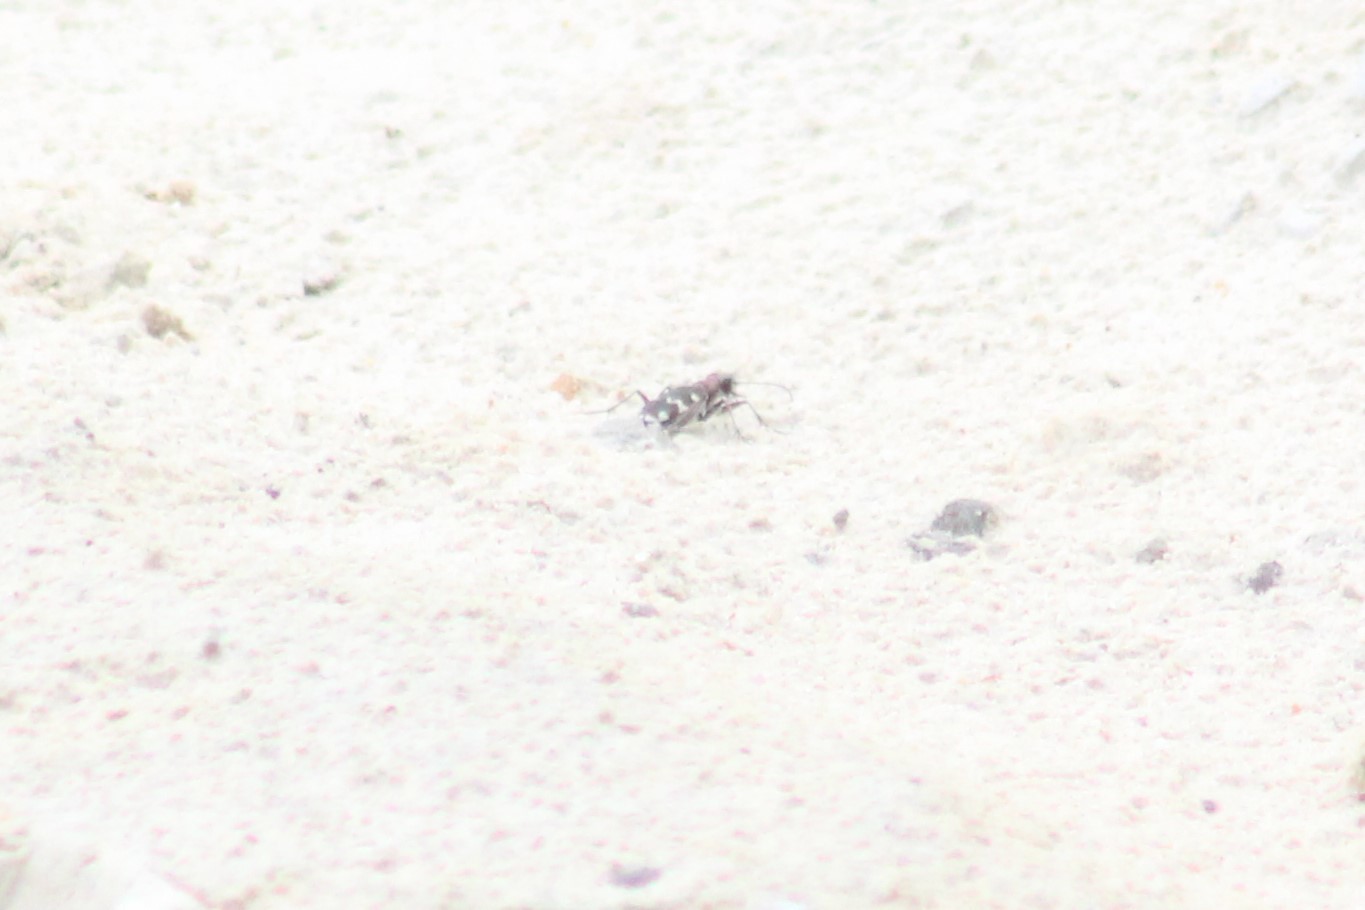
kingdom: Animalia
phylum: Arthropoda
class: Insecta
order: Coleoptera
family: Carabidae
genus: Cicindela
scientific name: Cicindela hybrida
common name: Northern dune tiger beetle
